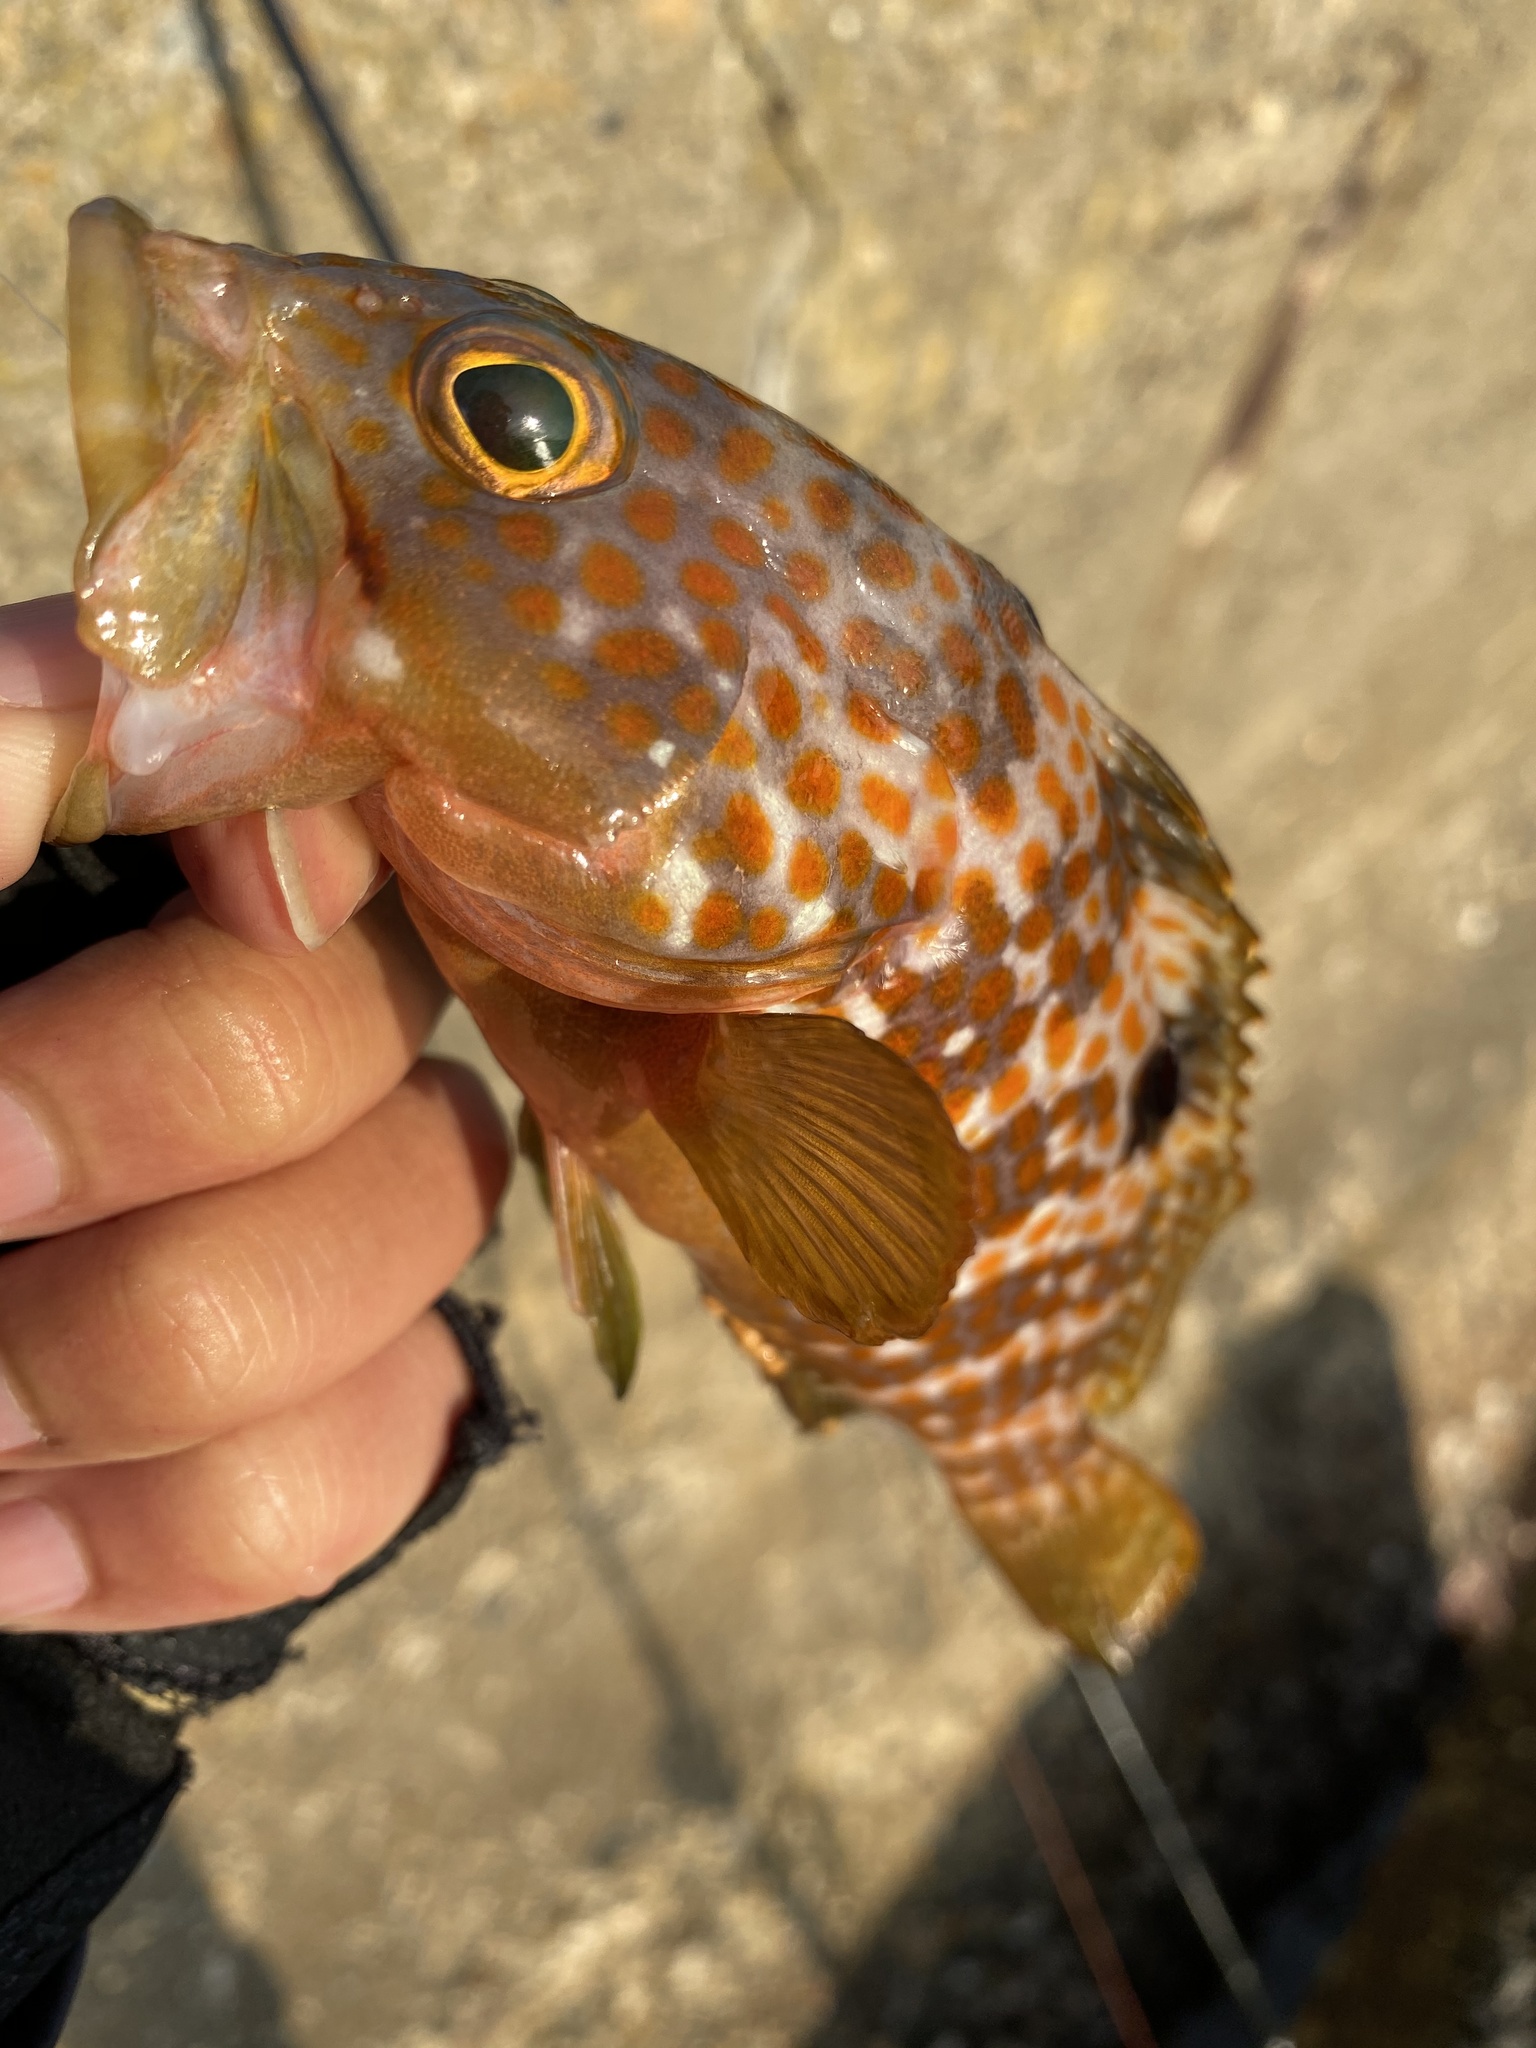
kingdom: Animalia
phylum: Chordata
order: Perciformes
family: Serranidae
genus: Epinephelus
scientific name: Epinephelus akaara
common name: Hong kong grouper
